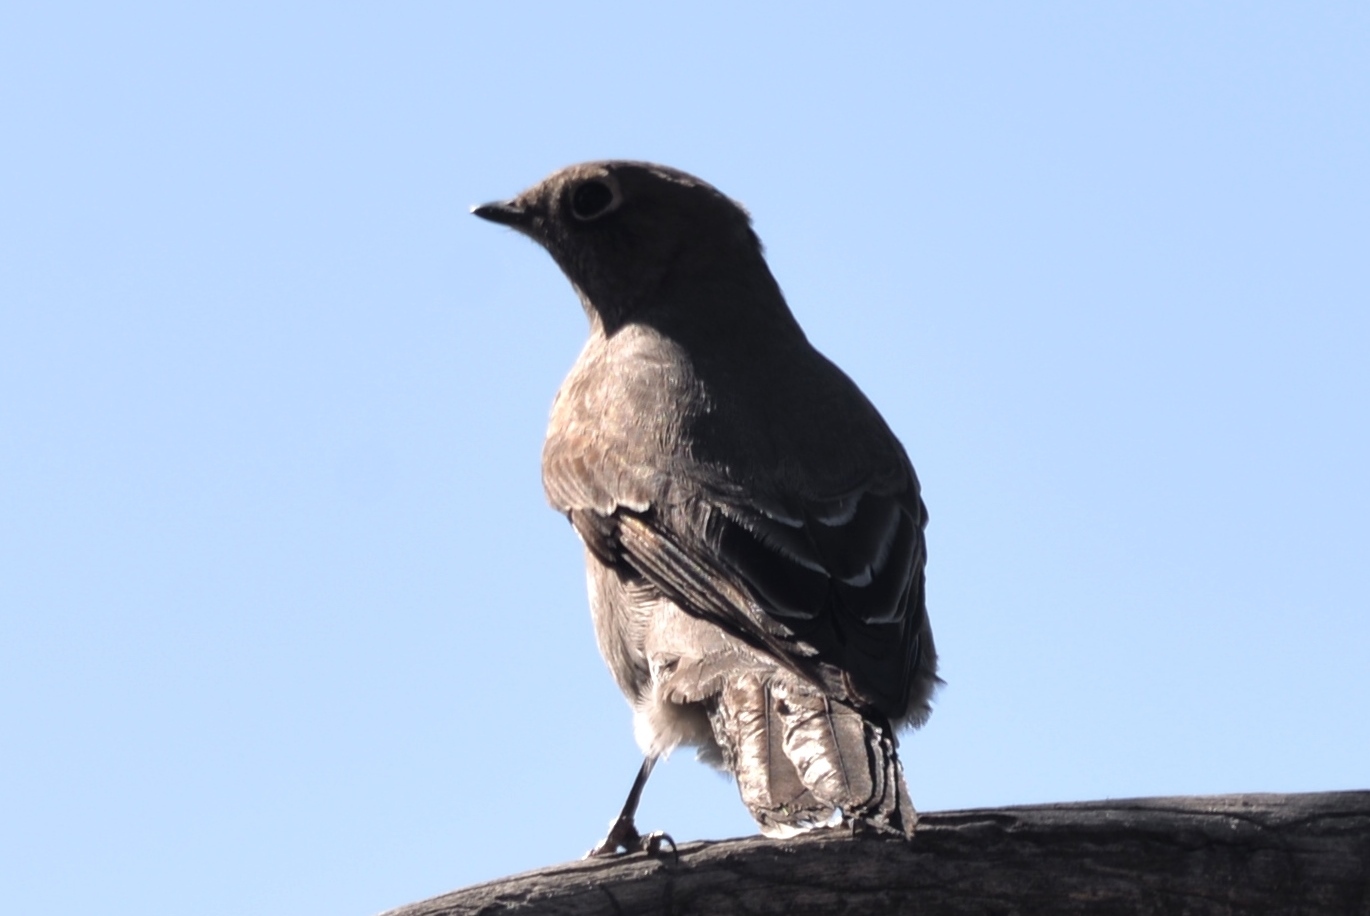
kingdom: Animalia
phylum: Chordata
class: Aves
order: Passeriformes
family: Turdidae
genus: Myadestes
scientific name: Myadestes townsendi
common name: Townsend's solitaire
